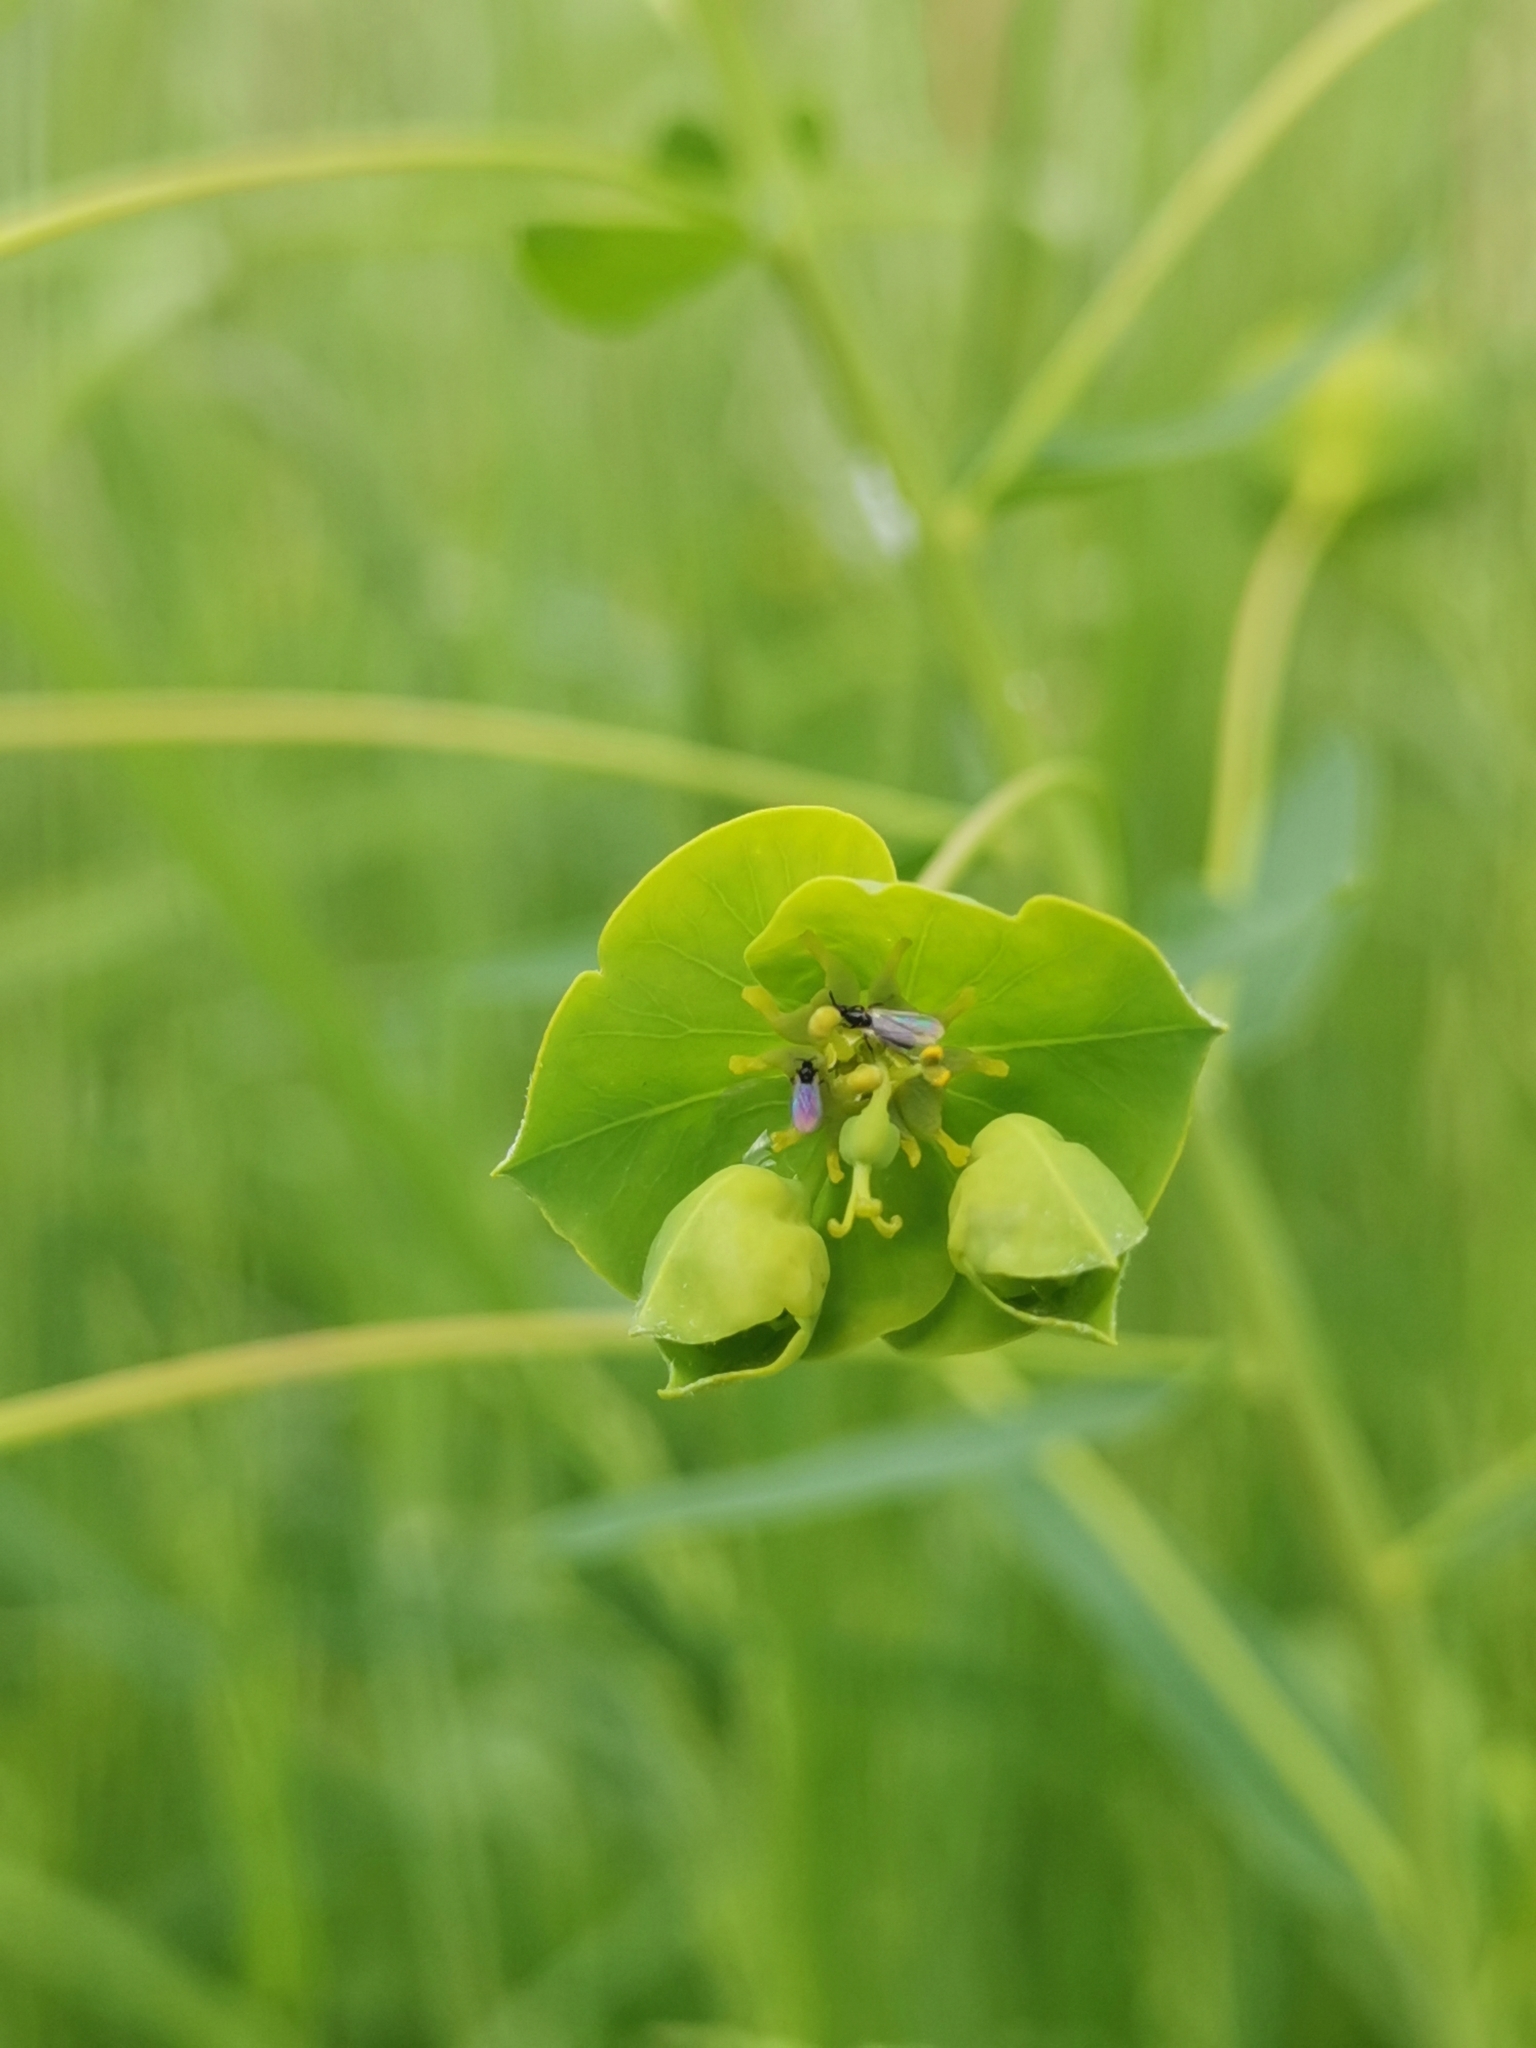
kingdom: Plantae
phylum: Tracheophyta
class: Magnoliopsida
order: Malpighiales
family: Euphorbiaceae
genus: Euphorbia
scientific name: Euphorbia virgata
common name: Leafy spurge
